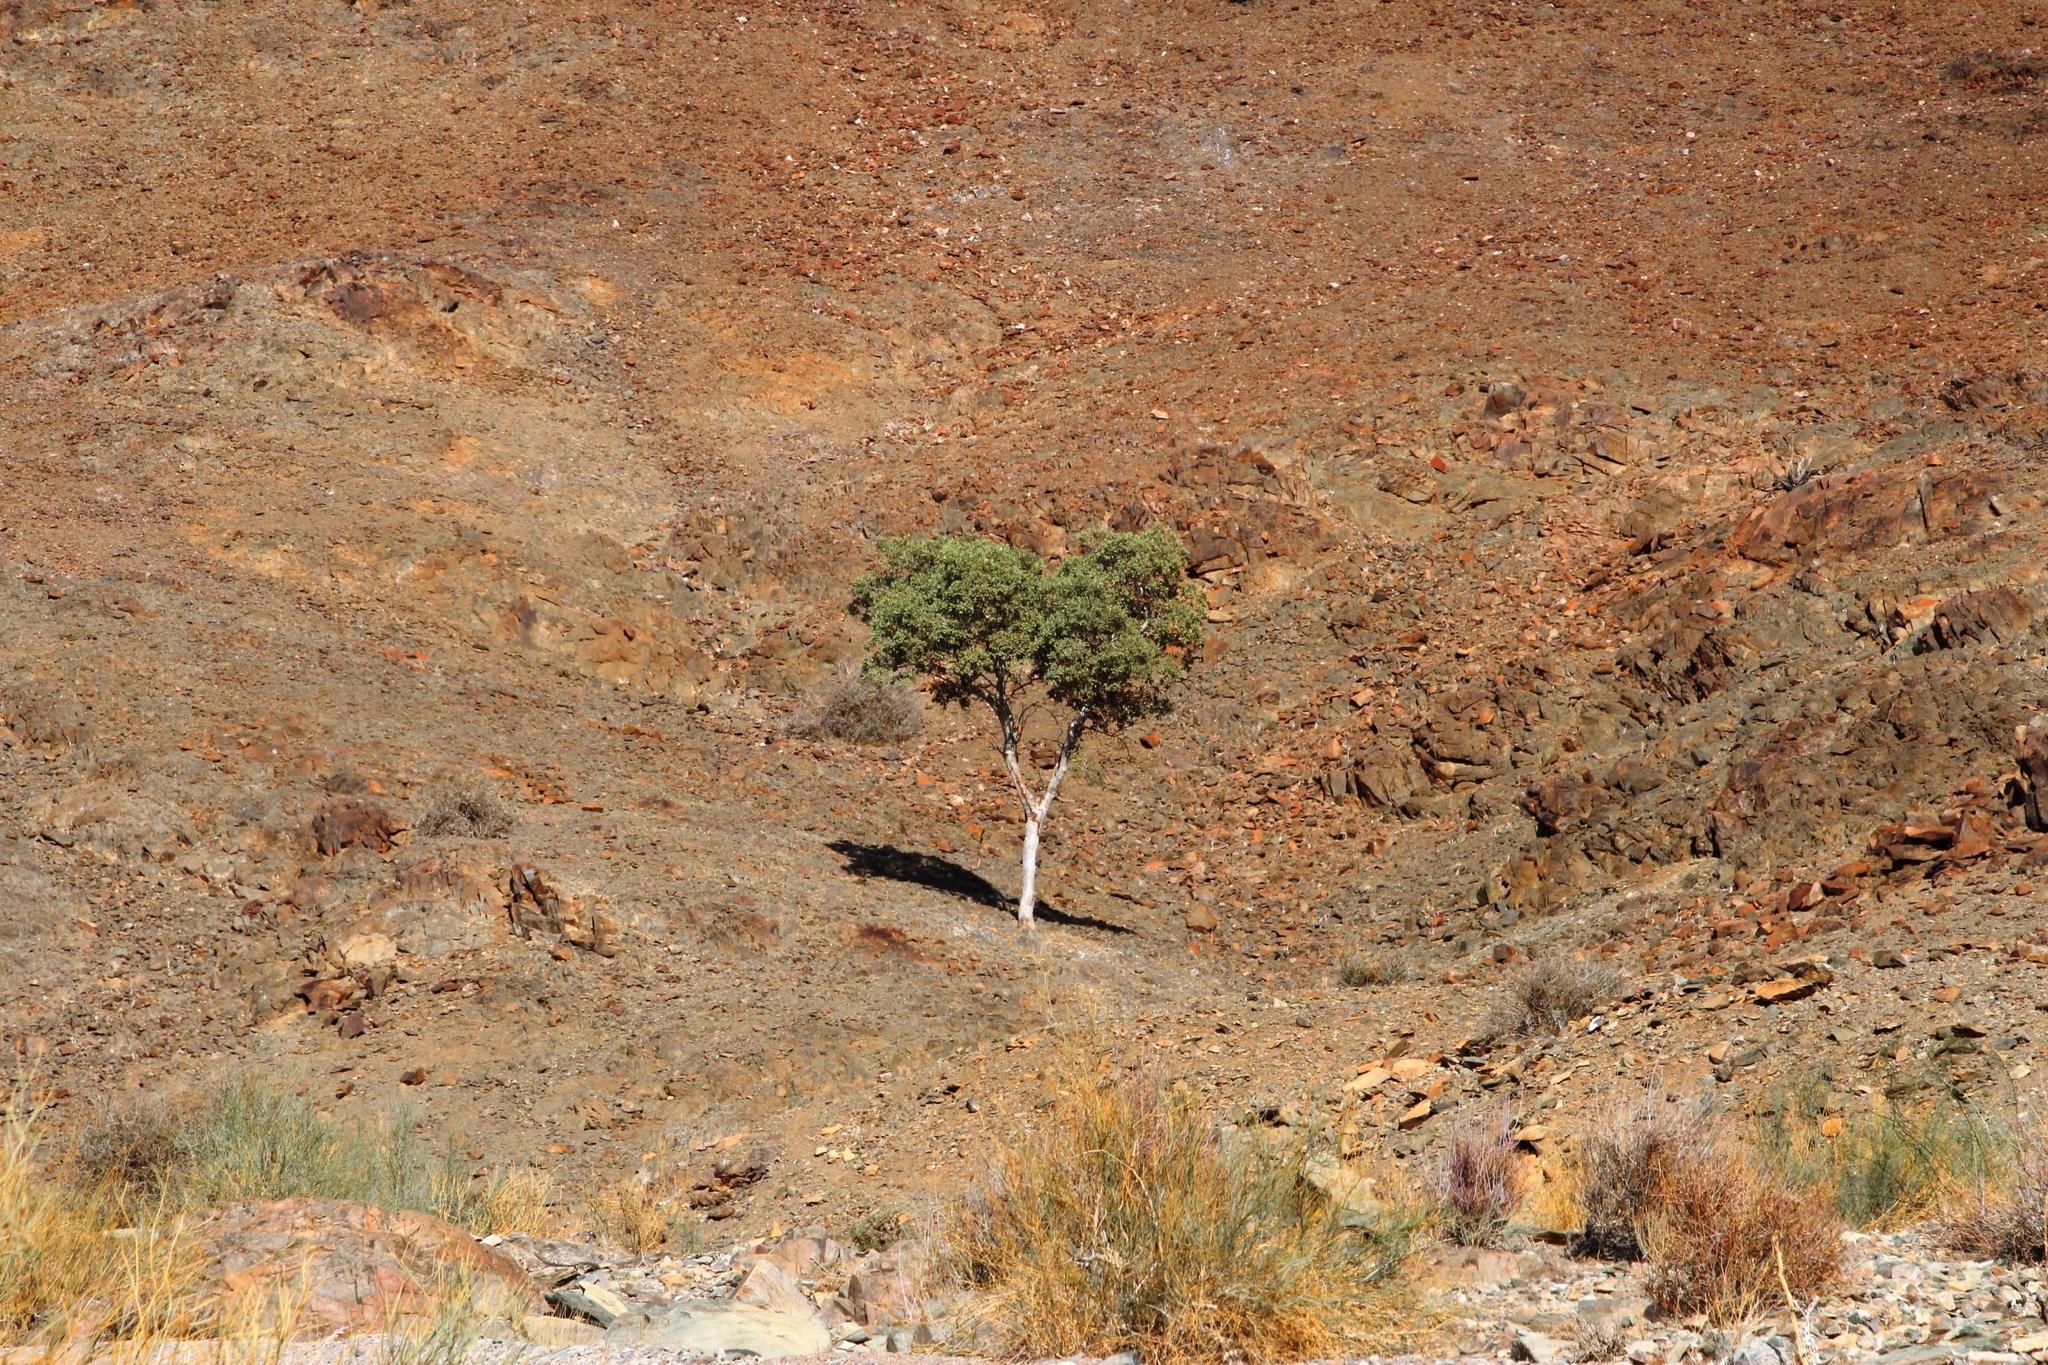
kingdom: Plantae
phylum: Tracheophyta
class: Magnoliopsida
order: Brassicales
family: Capparaceae
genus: Boscia
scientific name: Boscia albitrunca
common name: Caper bush
